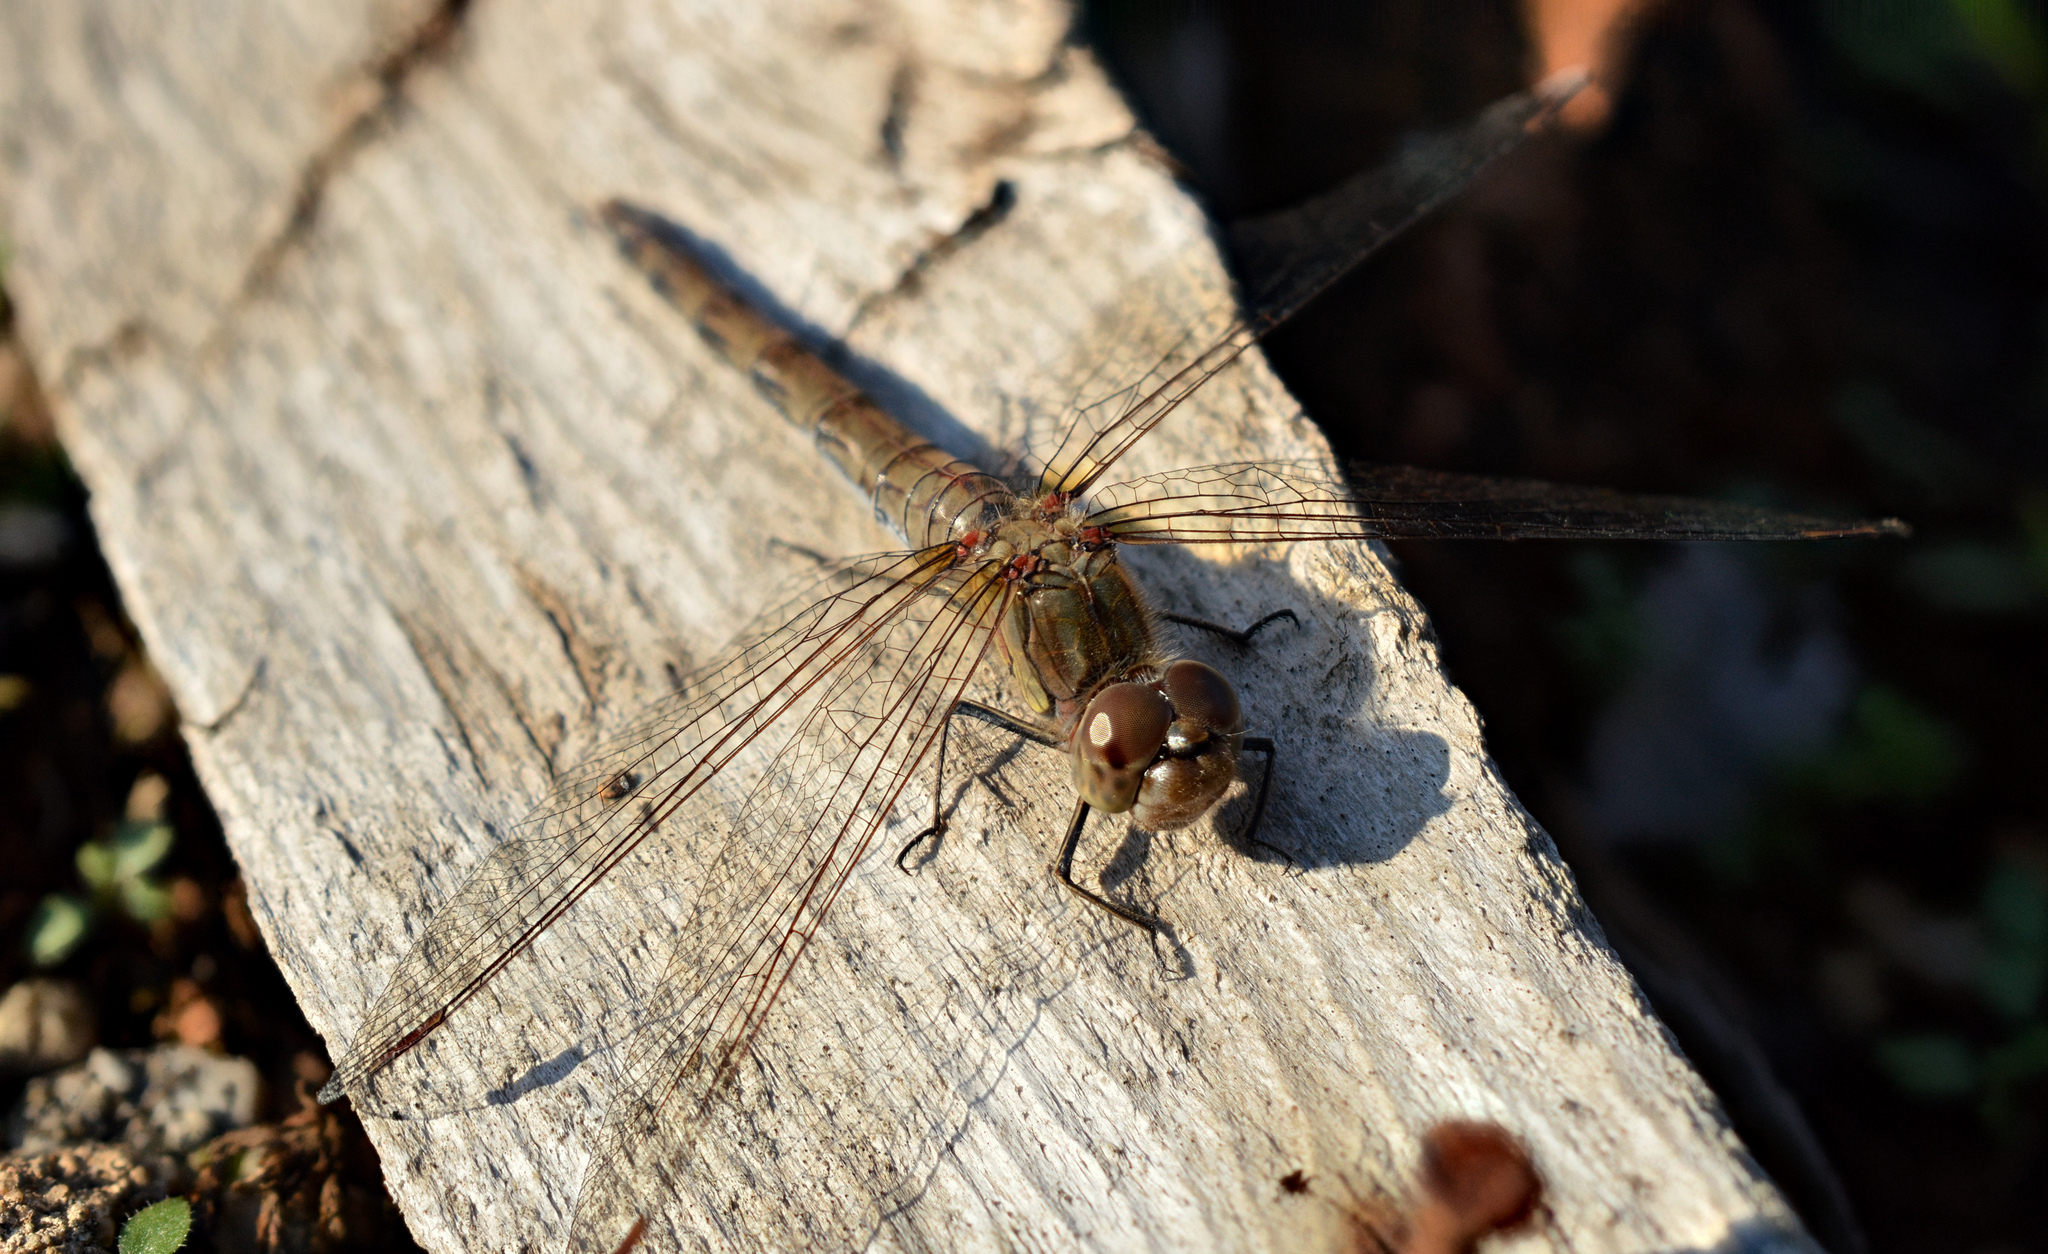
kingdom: Animalia
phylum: Arthropoda
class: Insecta
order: Odonata
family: Libellulidae
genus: Sympetrum
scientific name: Sympetrum striolatum
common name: Common darter
